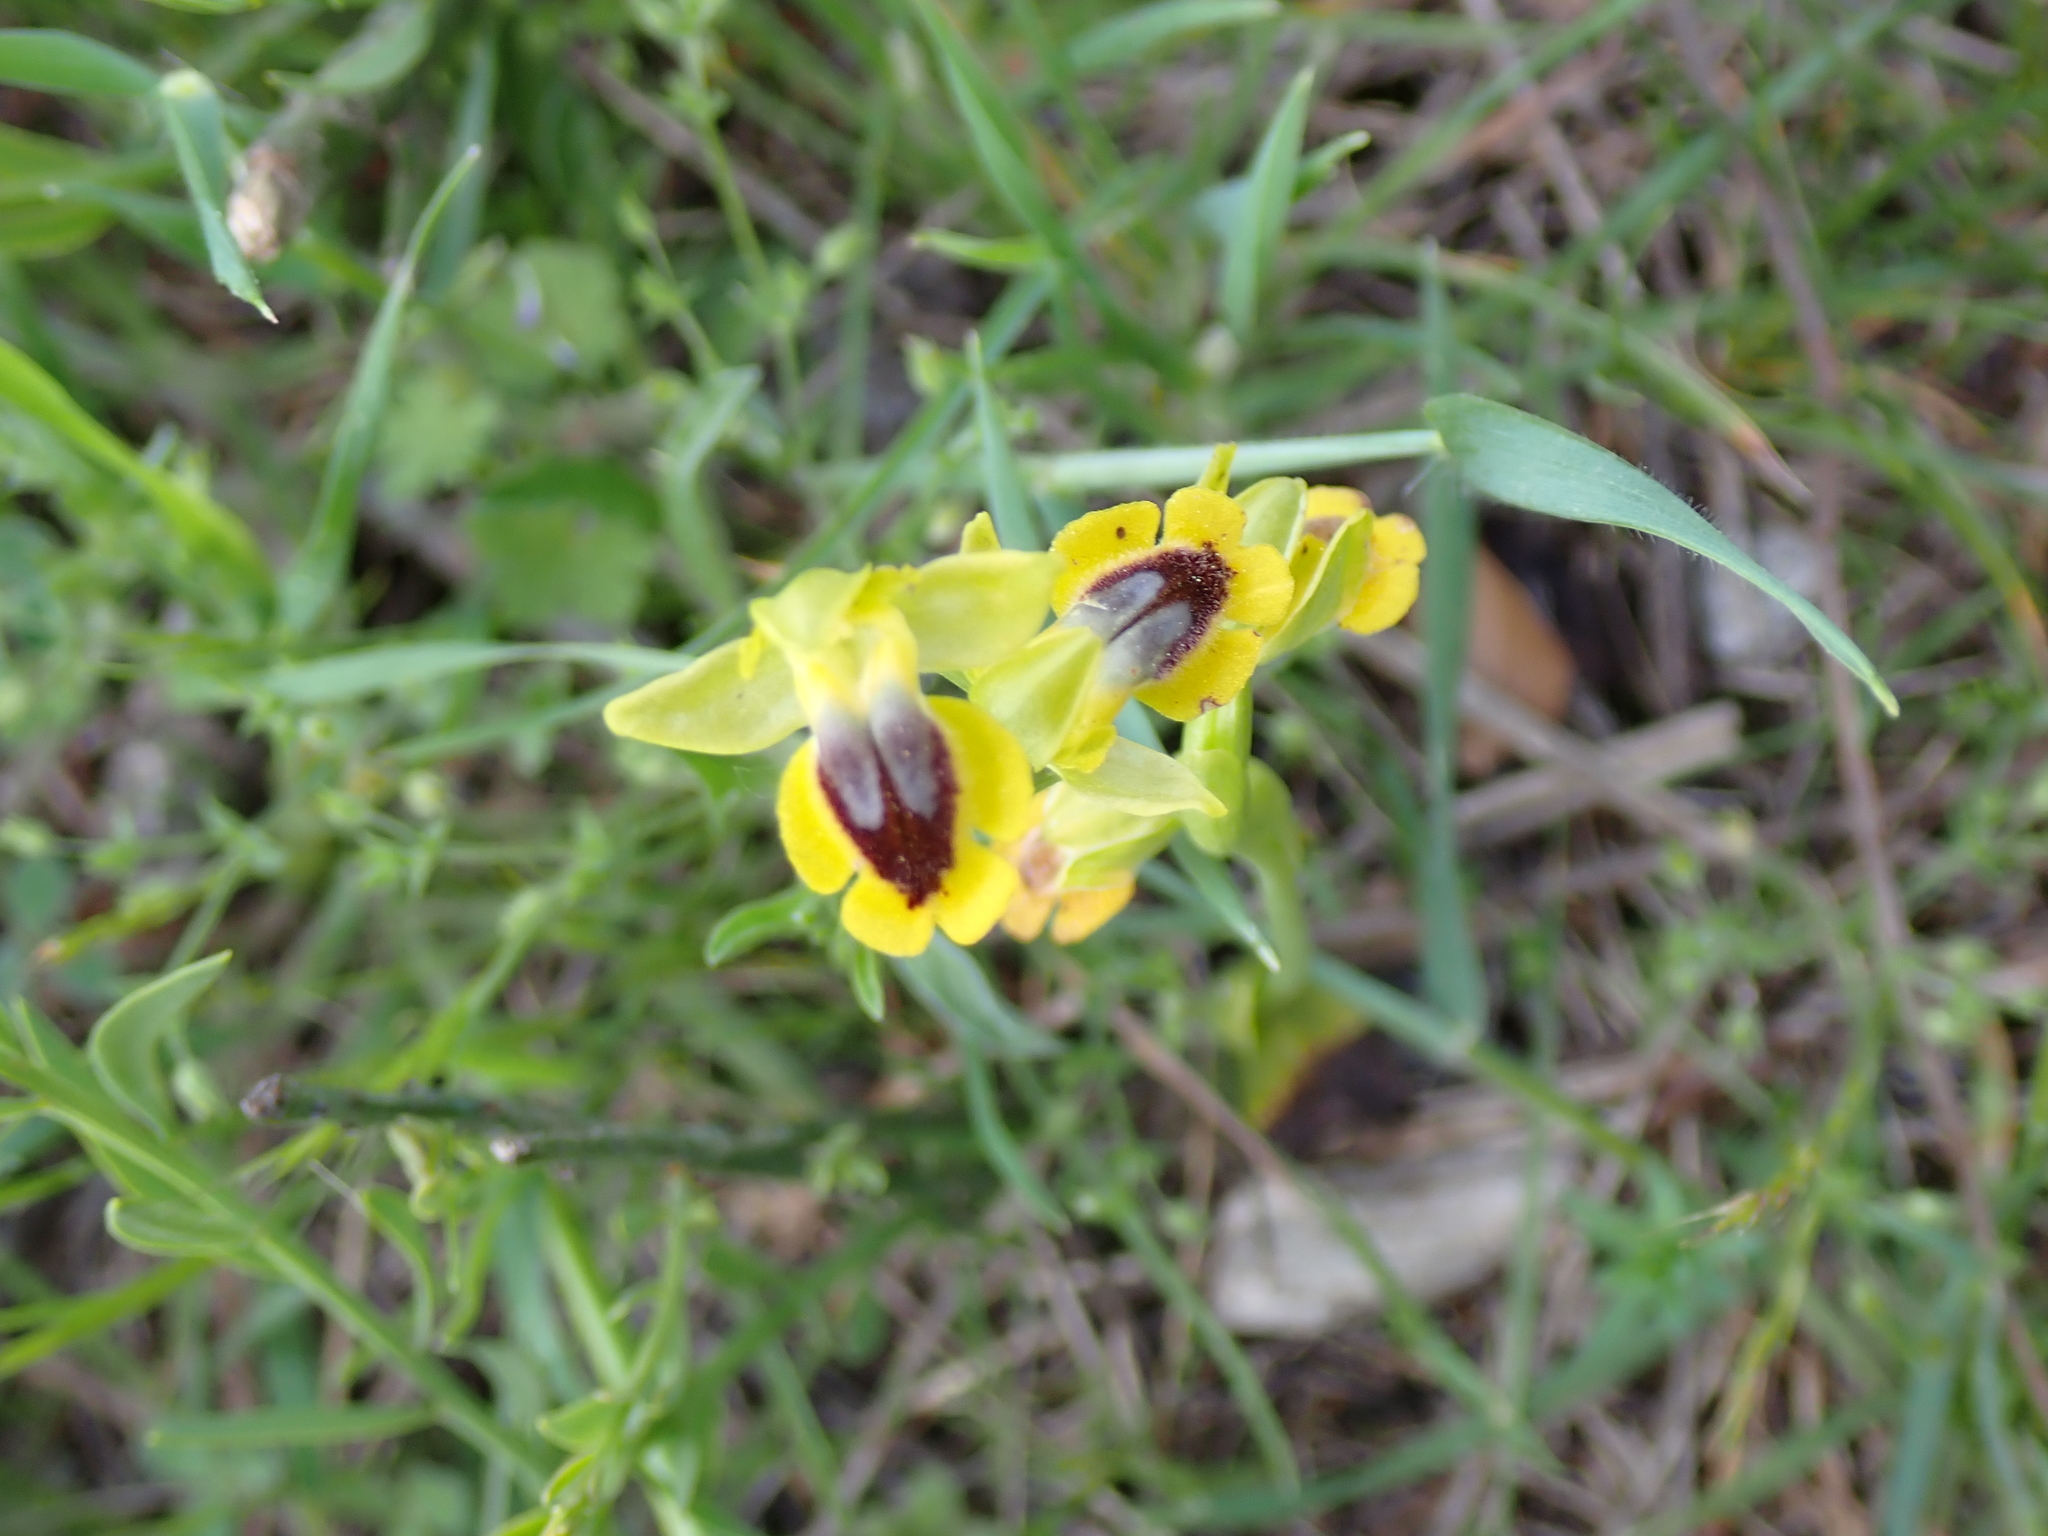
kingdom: Plantae
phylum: Tracheophyta
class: Liliopsida
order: Asparagales
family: Orchidaceae
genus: Ophrys
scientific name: Ophrys lutea
